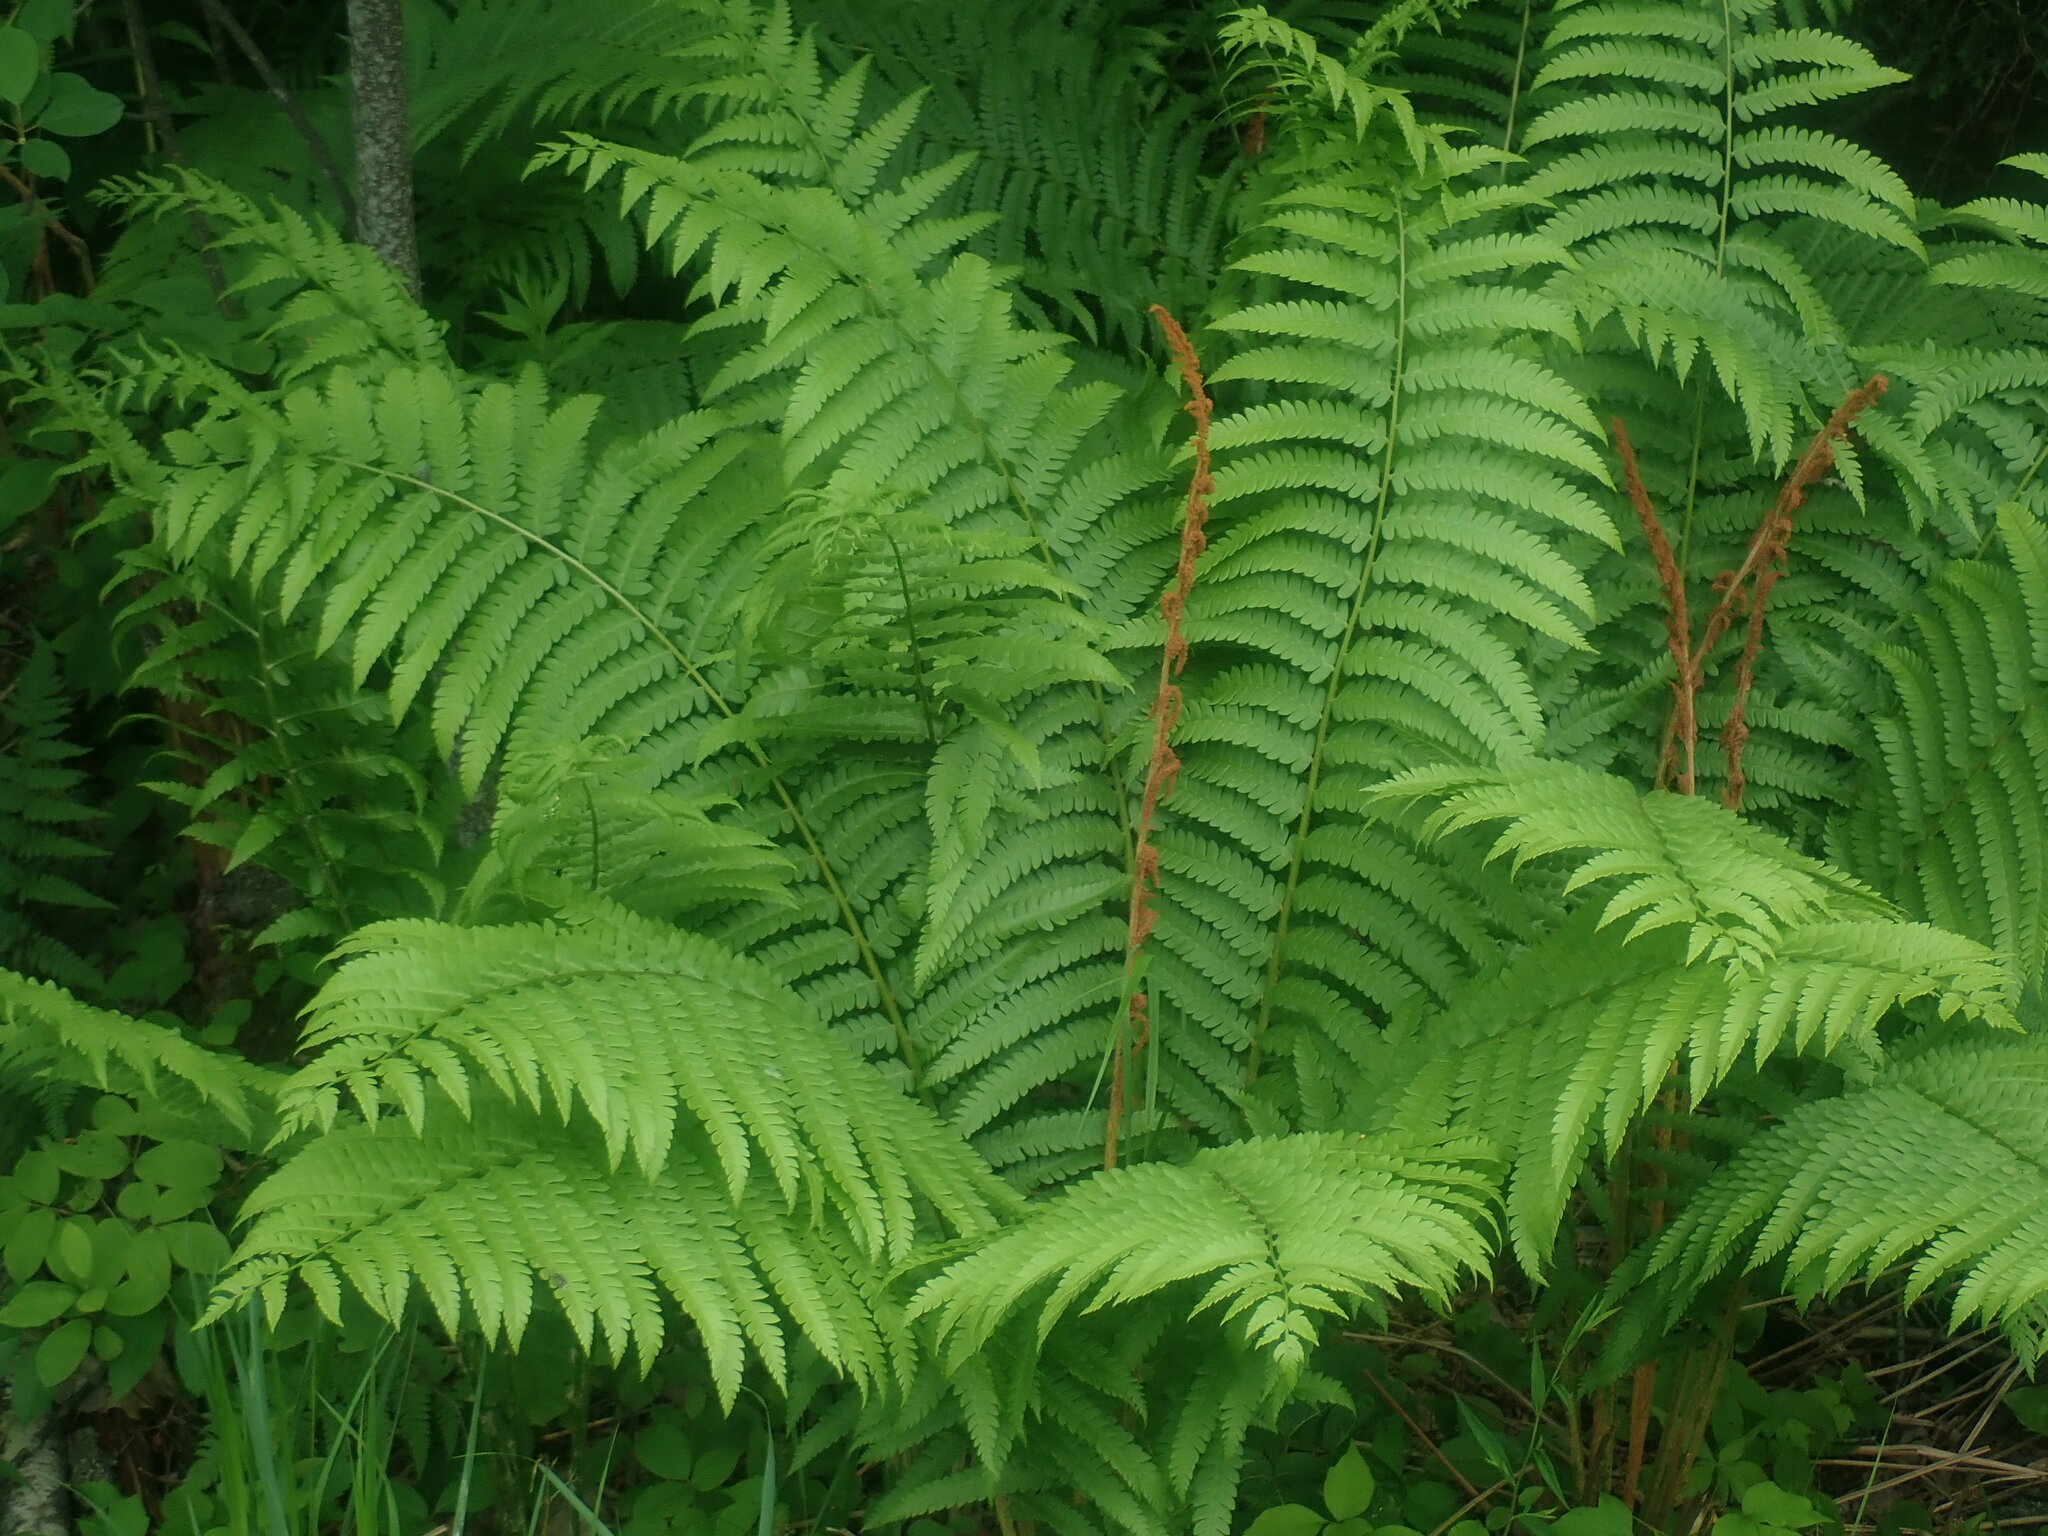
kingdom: Plantae
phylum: Tracheophyta
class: Polypodiopsida
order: Osmundales
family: Osmundaceae
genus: Osmundastrum
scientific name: Osmundastrum cinnamomeum
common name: Cinnamon fern
